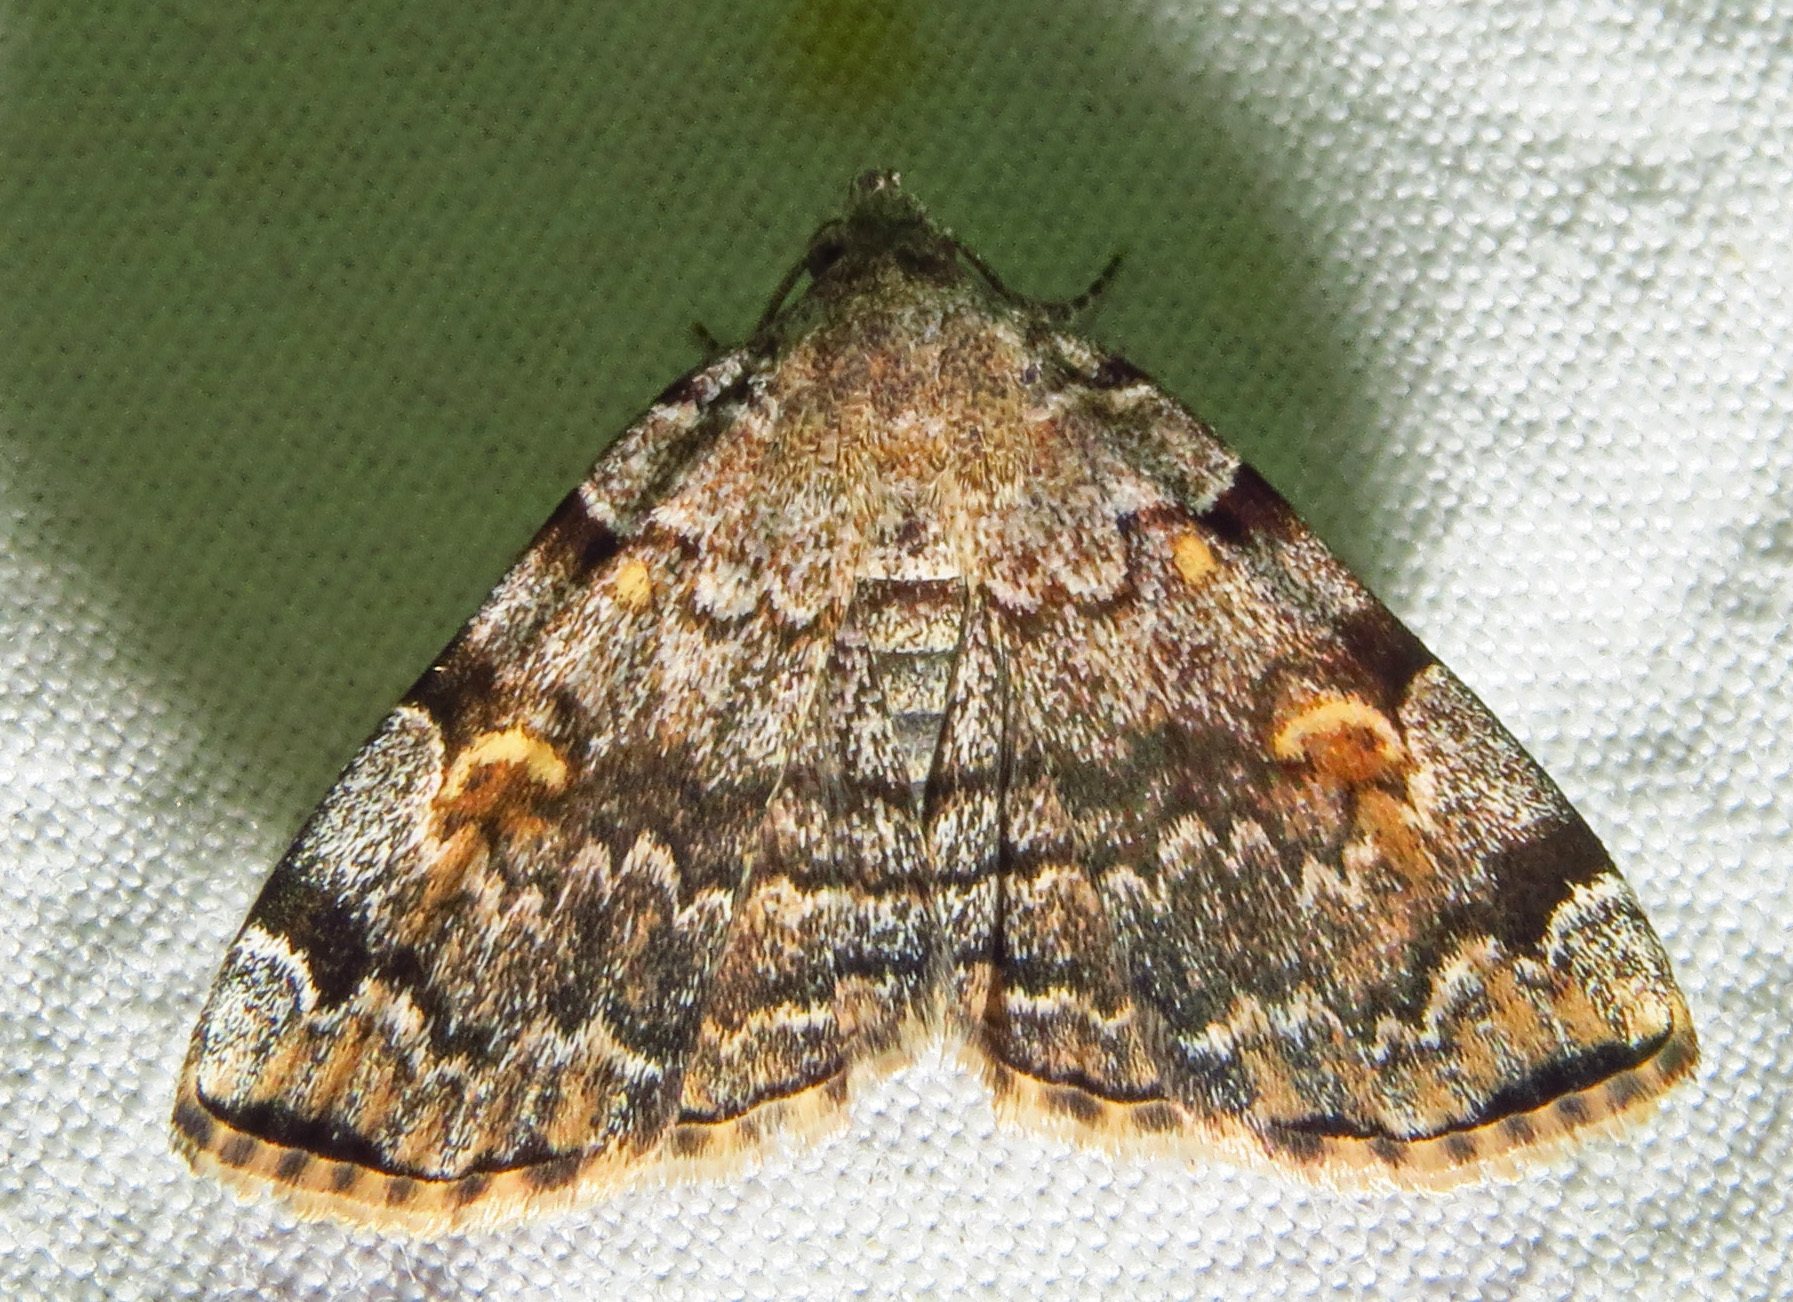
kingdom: Animalia
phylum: Arthropoda
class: Insecta
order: Lepidoptera
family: Erebidae
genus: Idia
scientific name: Idia americalis
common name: American idia moth
